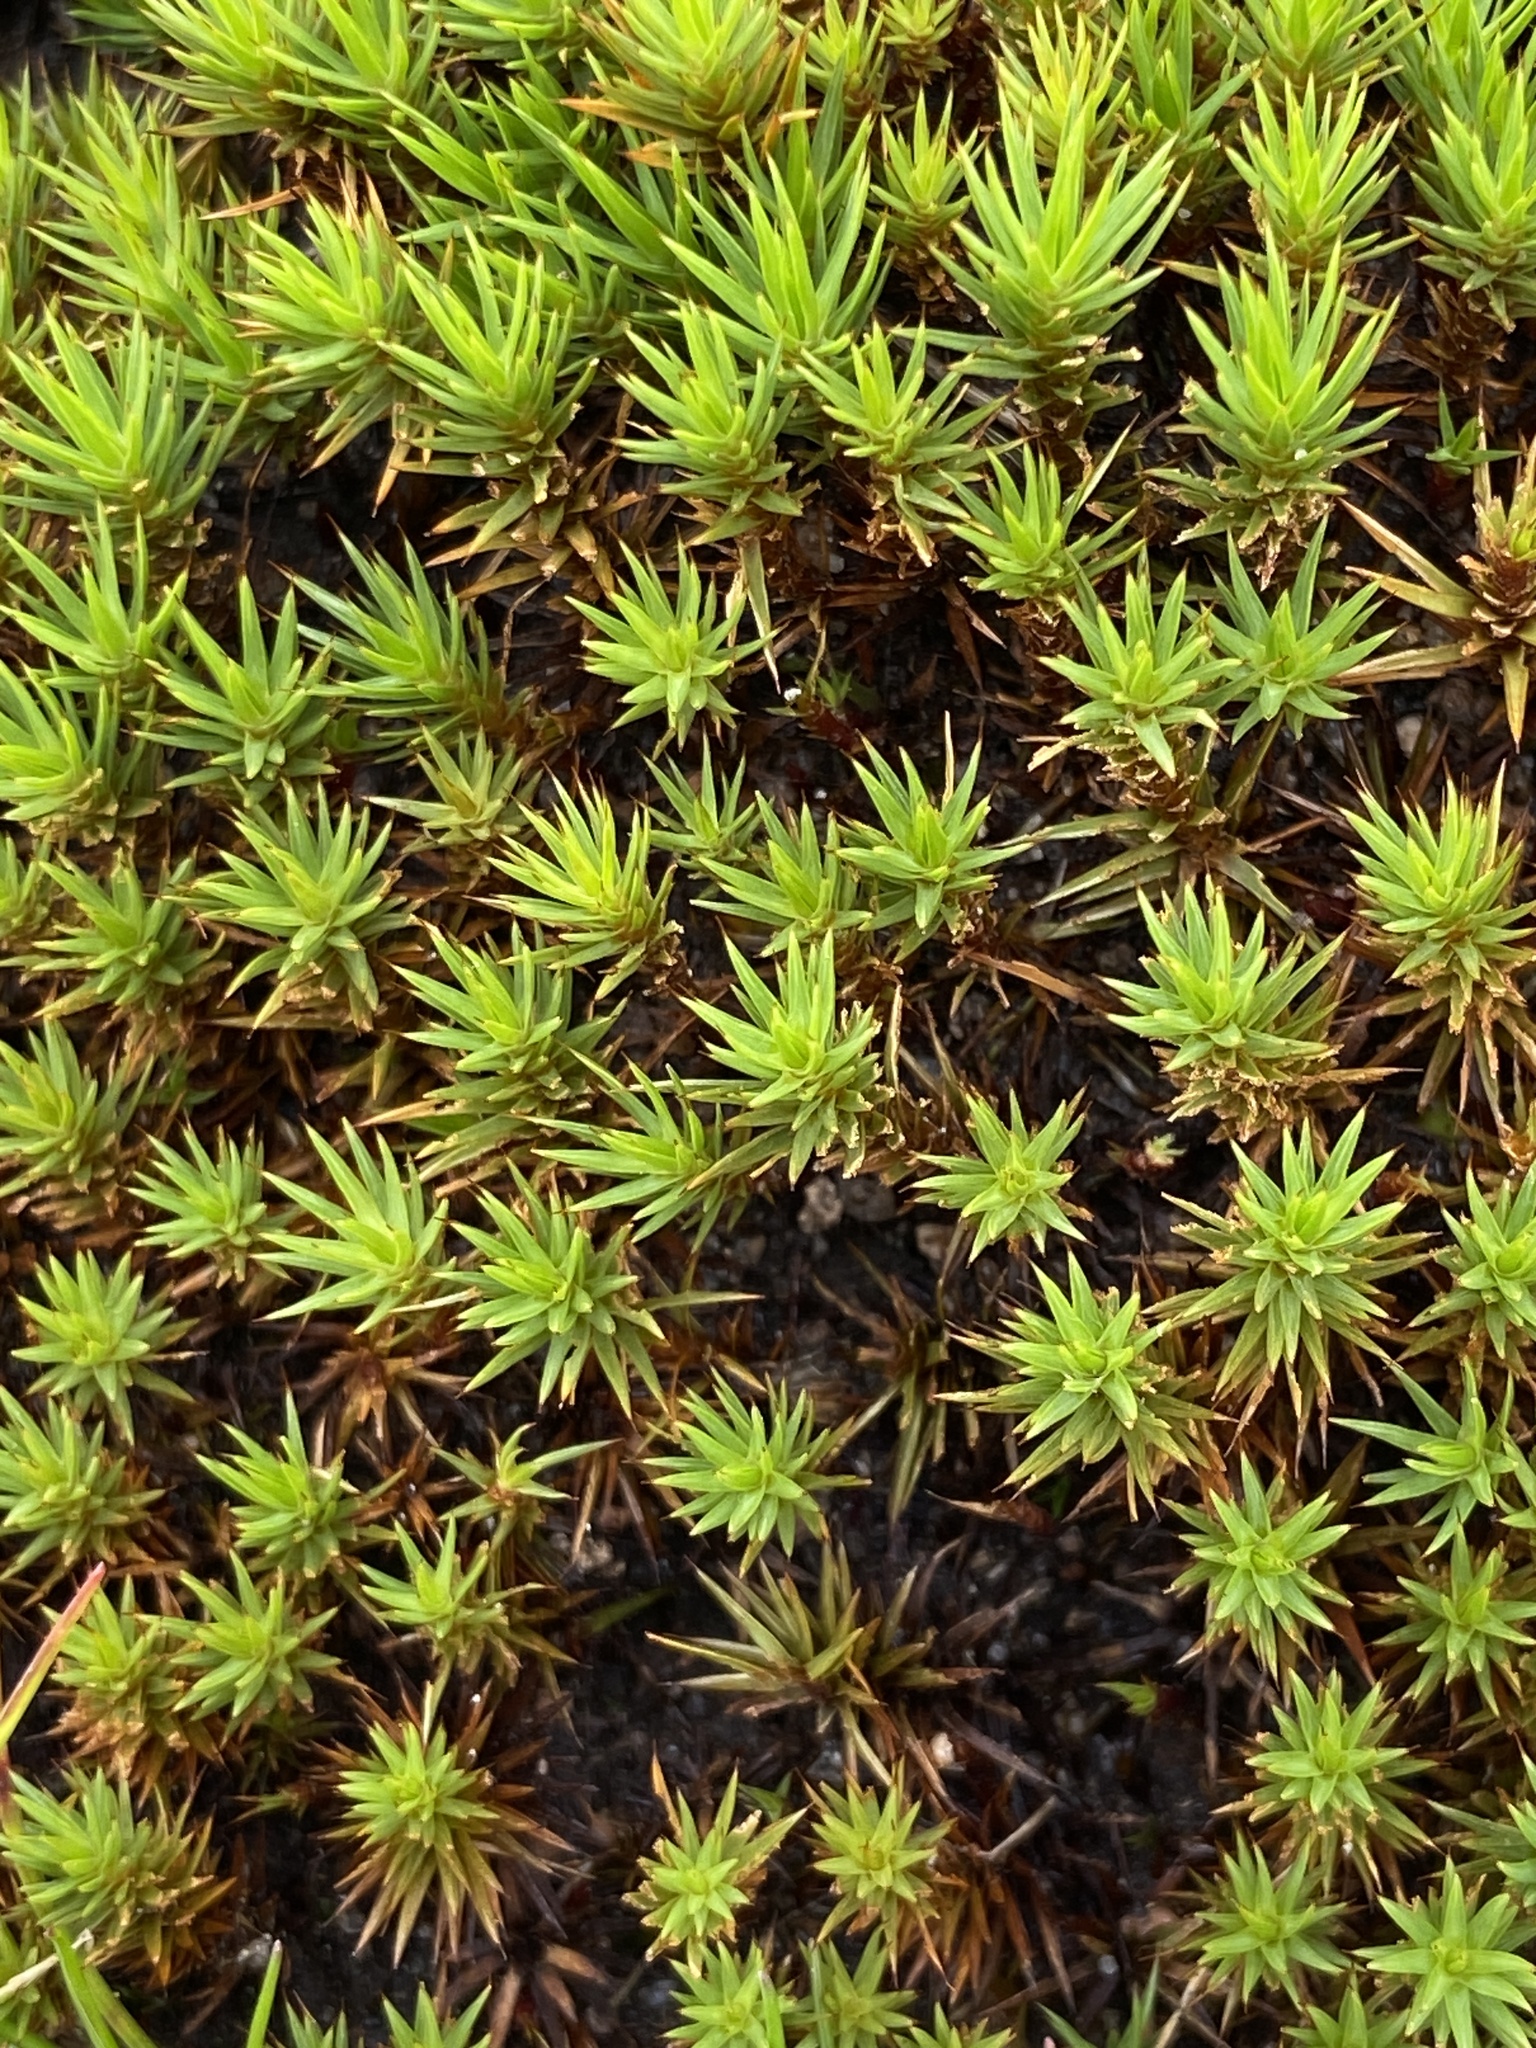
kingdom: Plantae
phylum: Bryophyta
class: Polytrichopsida
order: Polytrichales
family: Polytrichaceae
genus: Polytrichum
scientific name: Polytrichum juniperinum
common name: Juniper haircap moss
